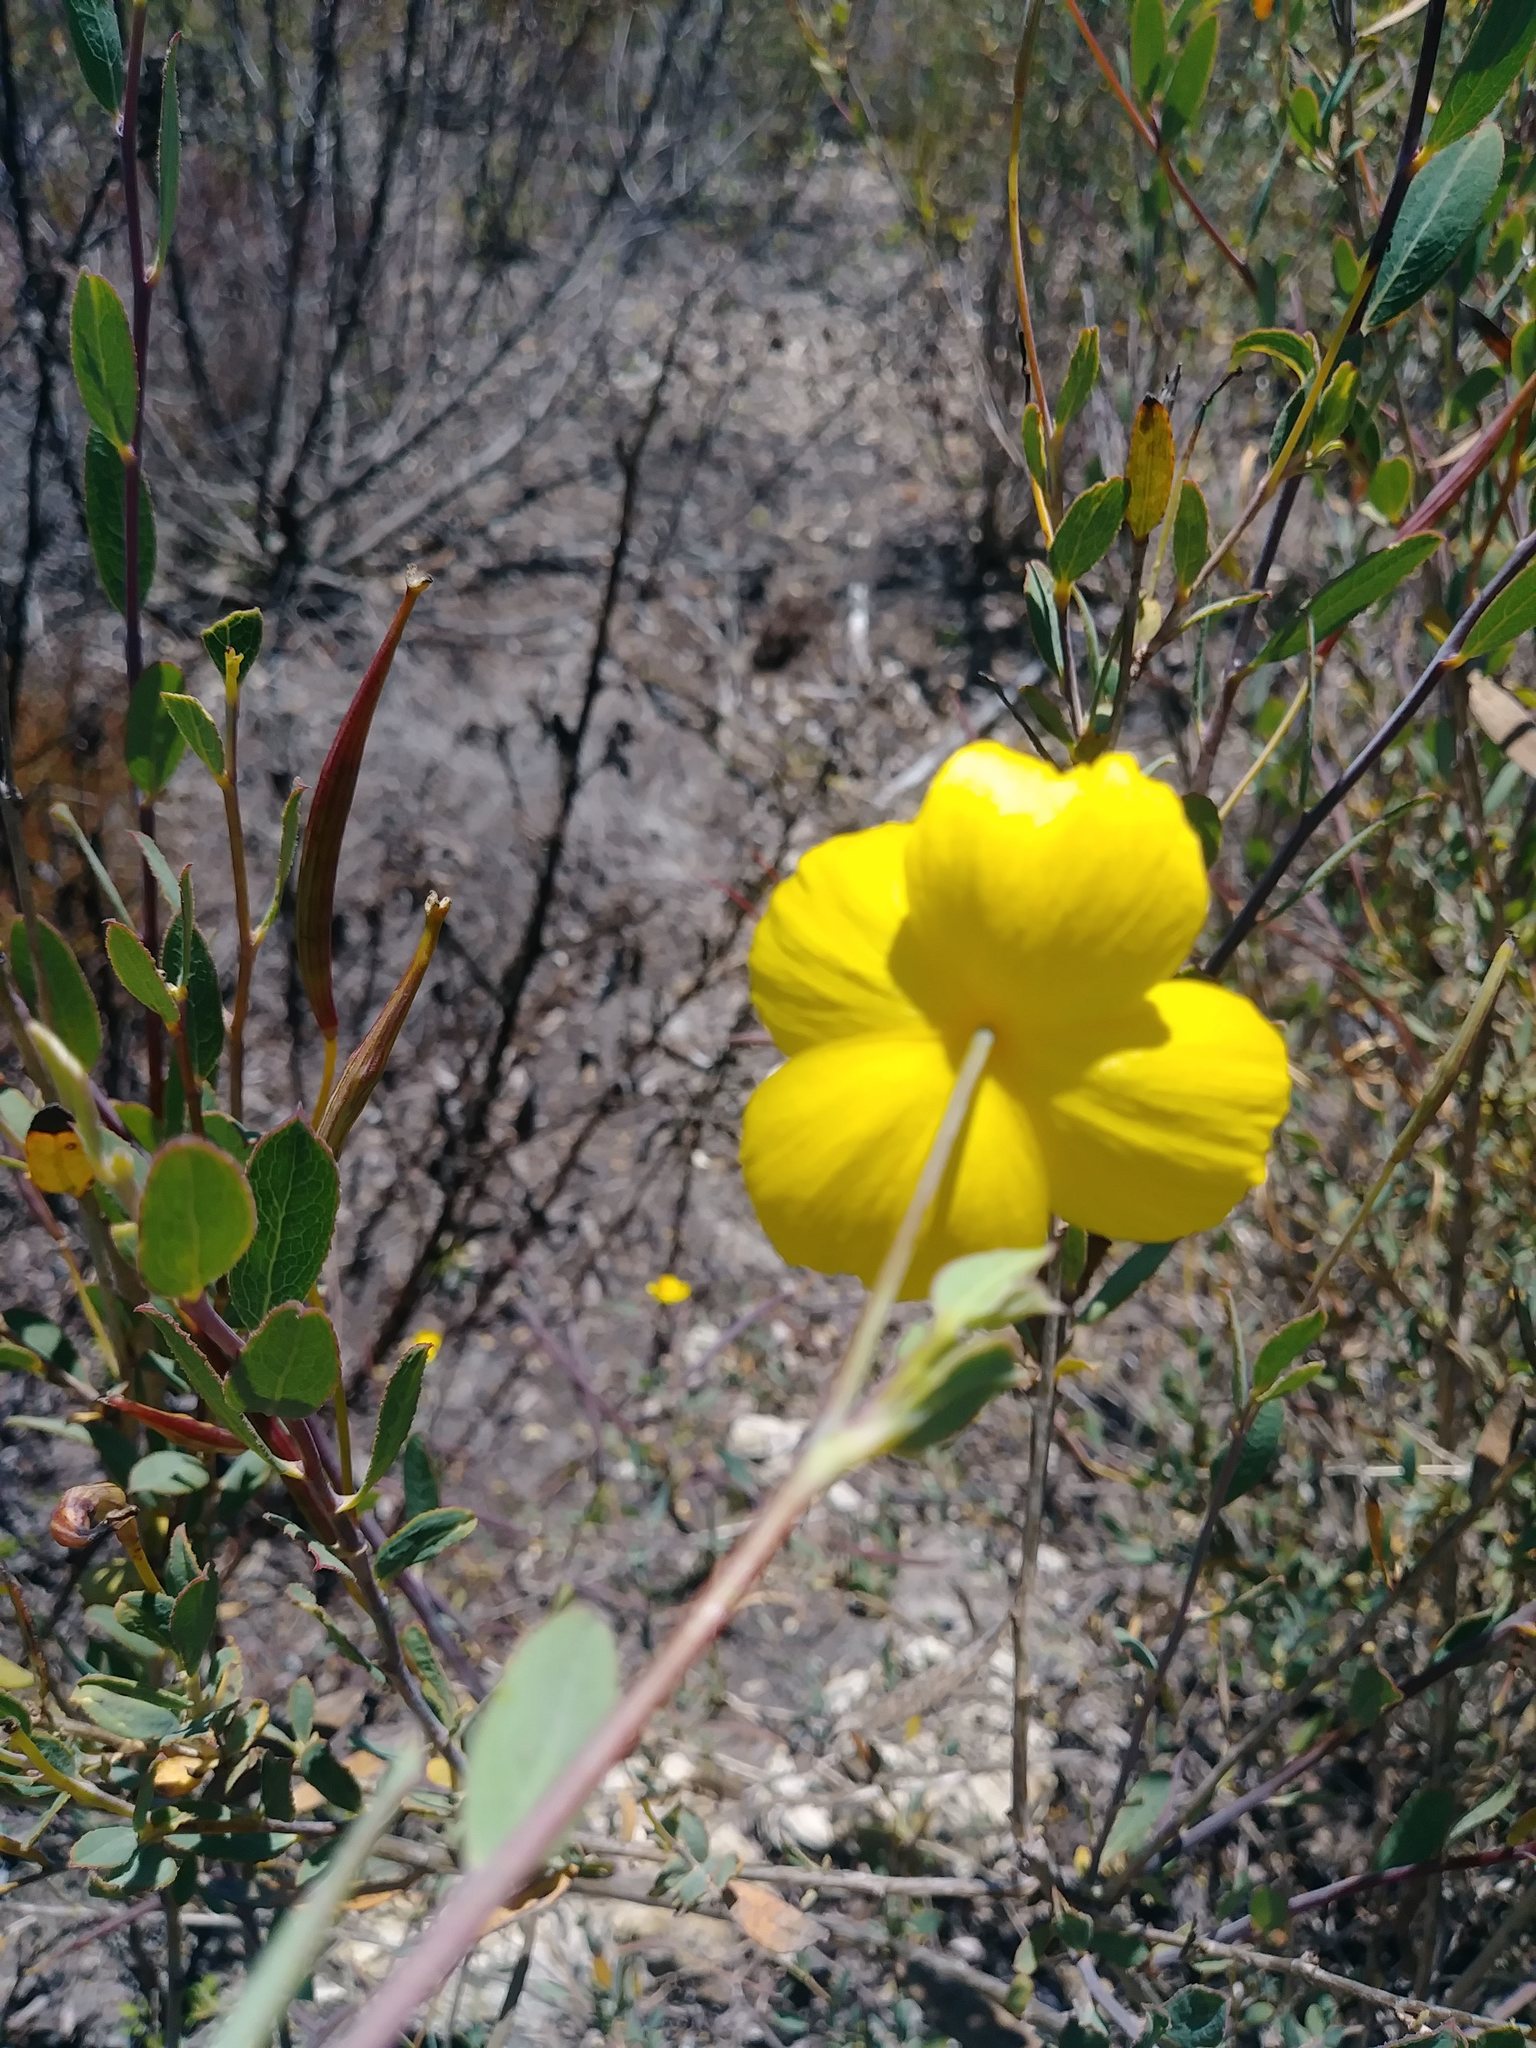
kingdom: Plantae
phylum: Tracheophyta
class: Magnoliopsida
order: Ranunculales
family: Papaveraceae
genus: Dendromecon
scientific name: Dendromecon rigida
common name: Tree poppy
